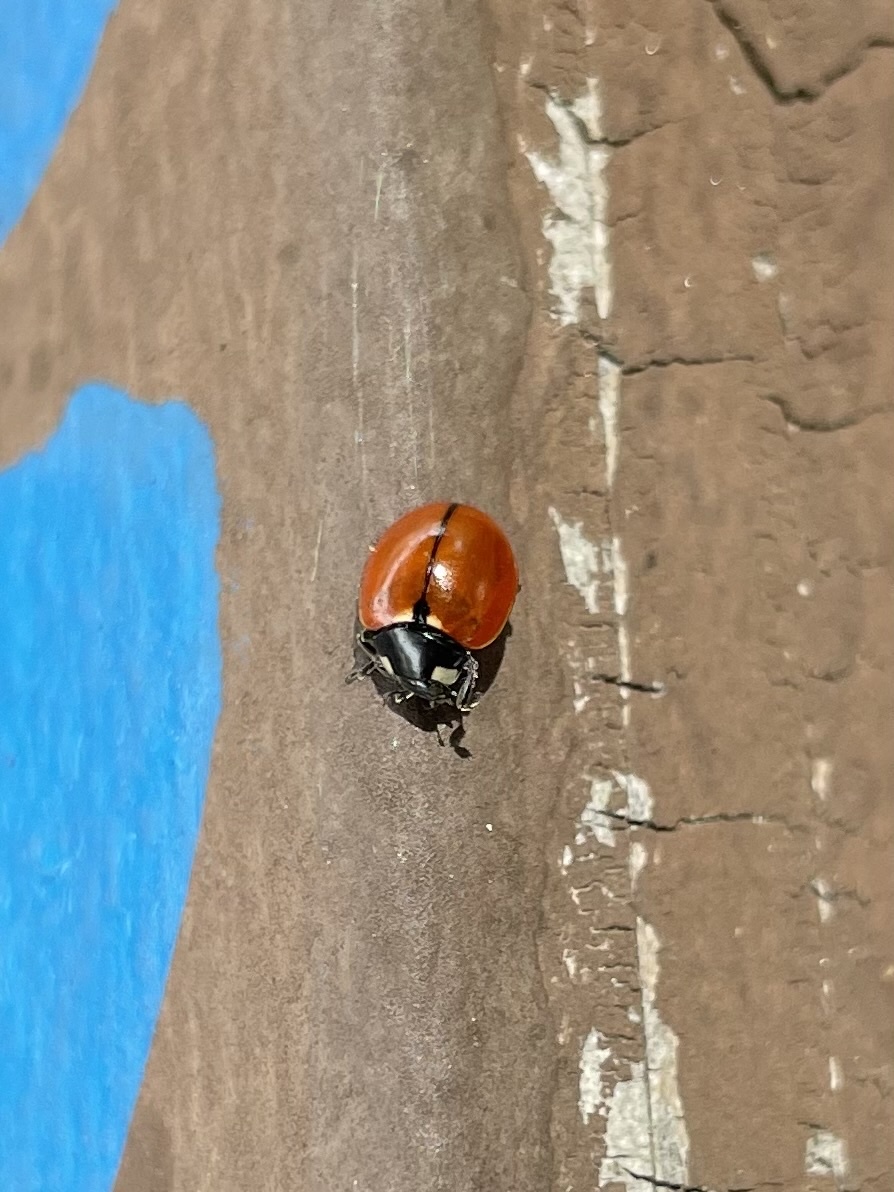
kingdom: Animalia
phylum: Arthropoda
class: Insecta
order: Coleoptera
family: Coccinellidae
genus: Coccinella
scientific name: Coccinella californica
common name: Lady beetle
